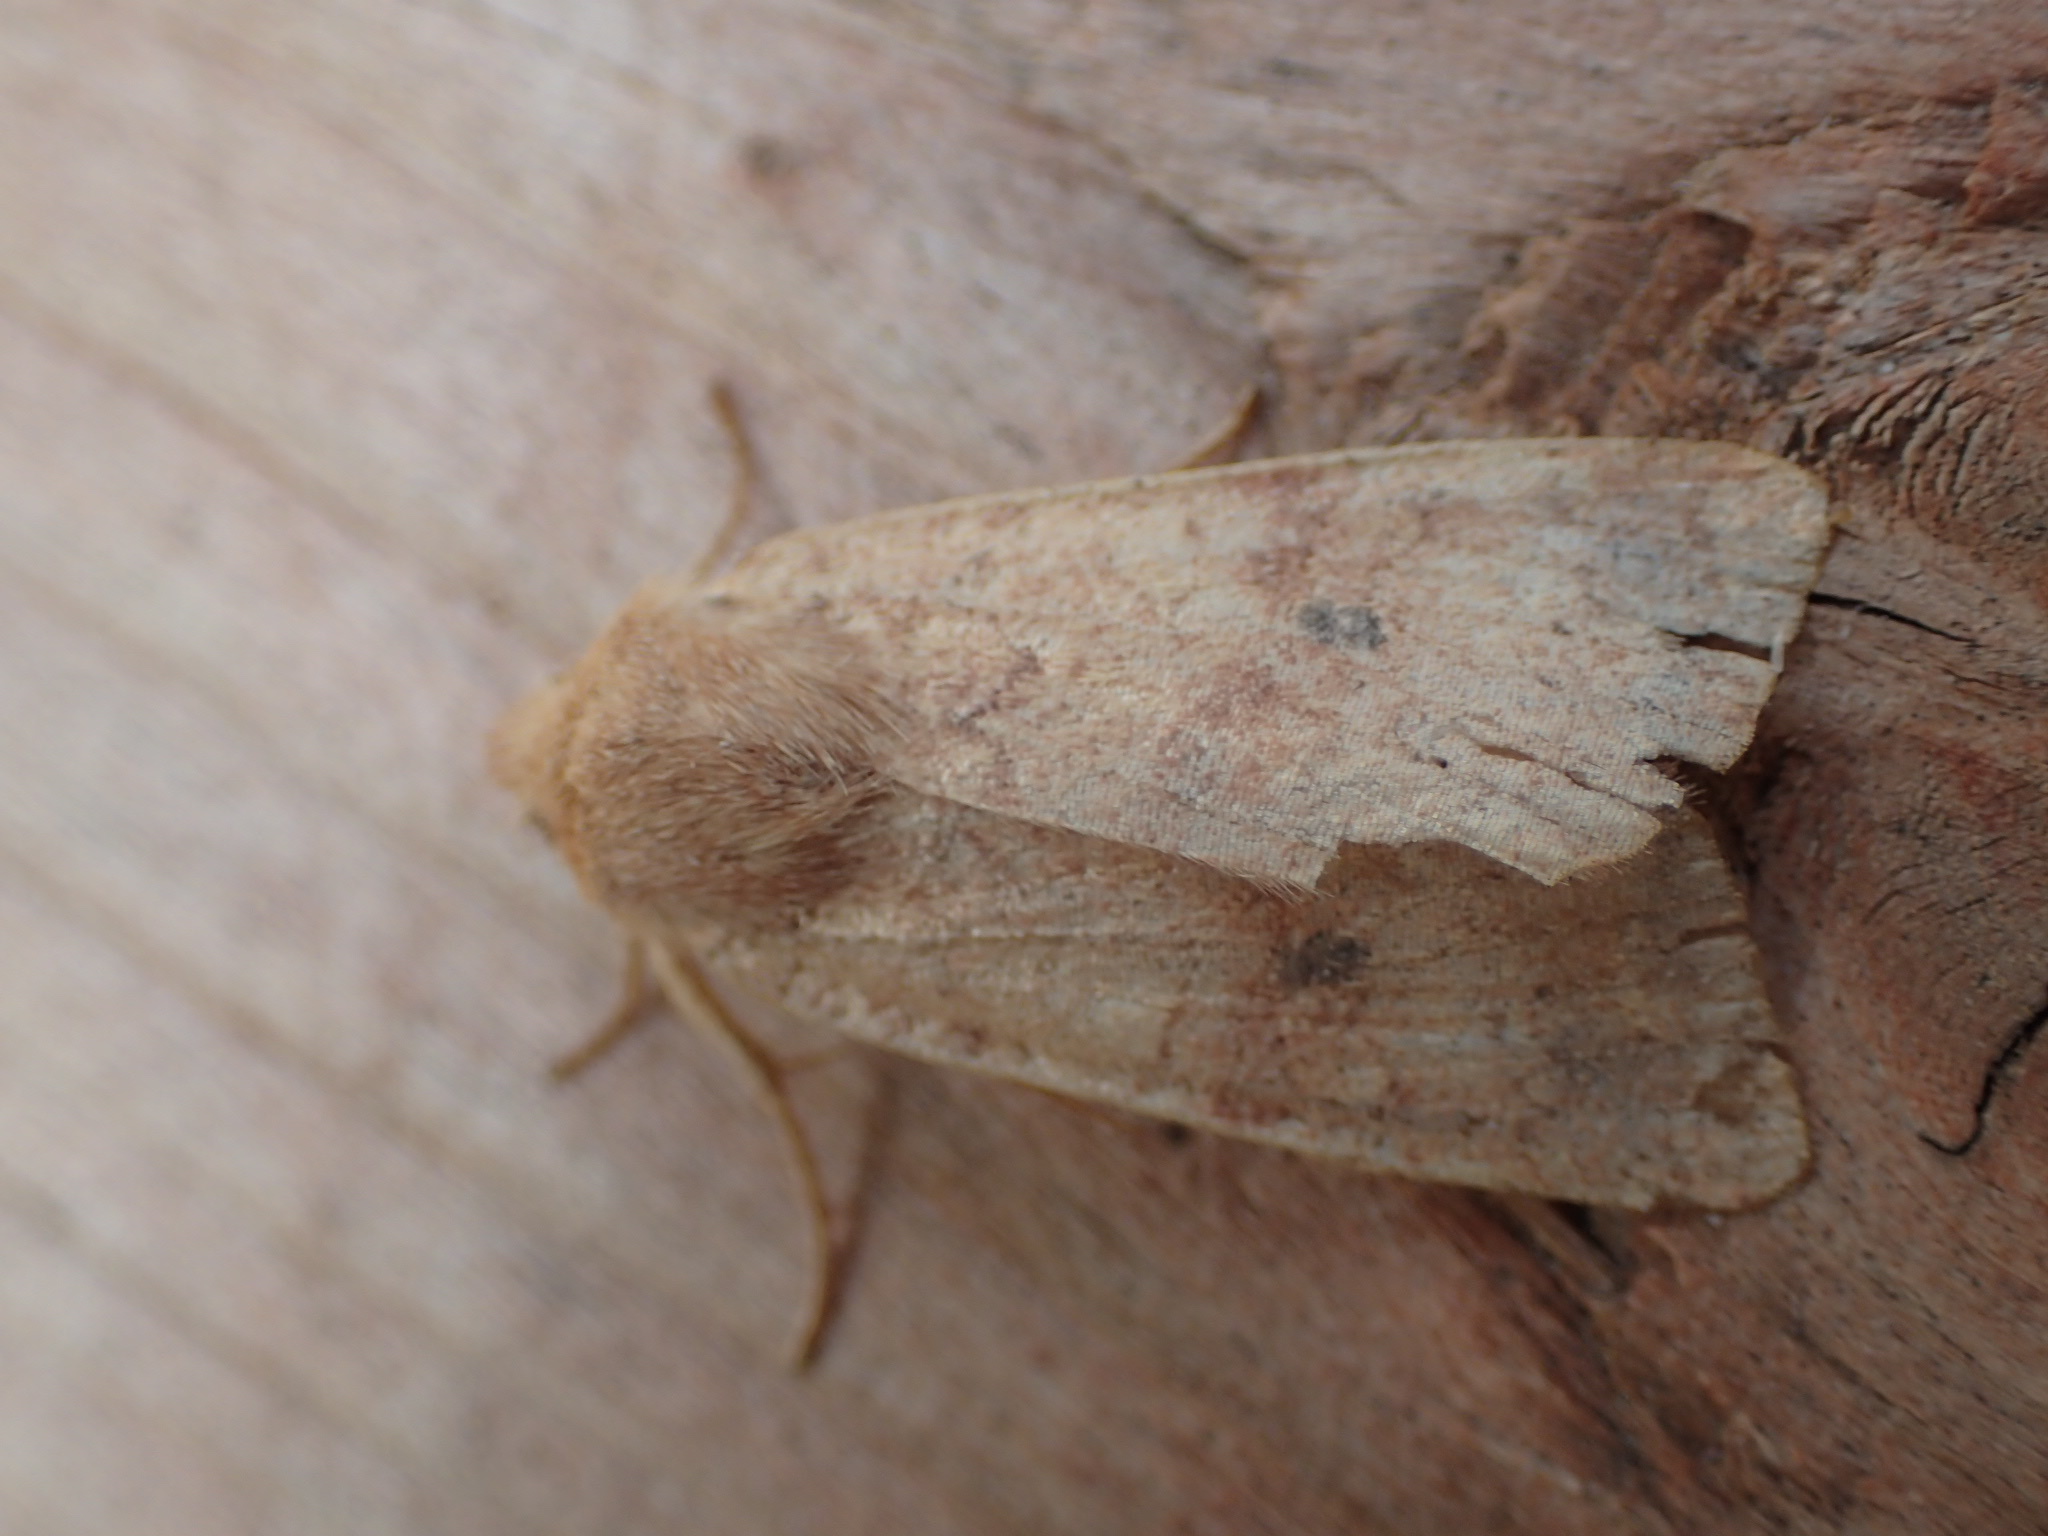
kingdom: Animalia
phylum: Arthropoda
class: Insecta
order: Lepidoptera
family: Noctuidae
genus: Agrochola
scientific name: Agrochola bicolorago
